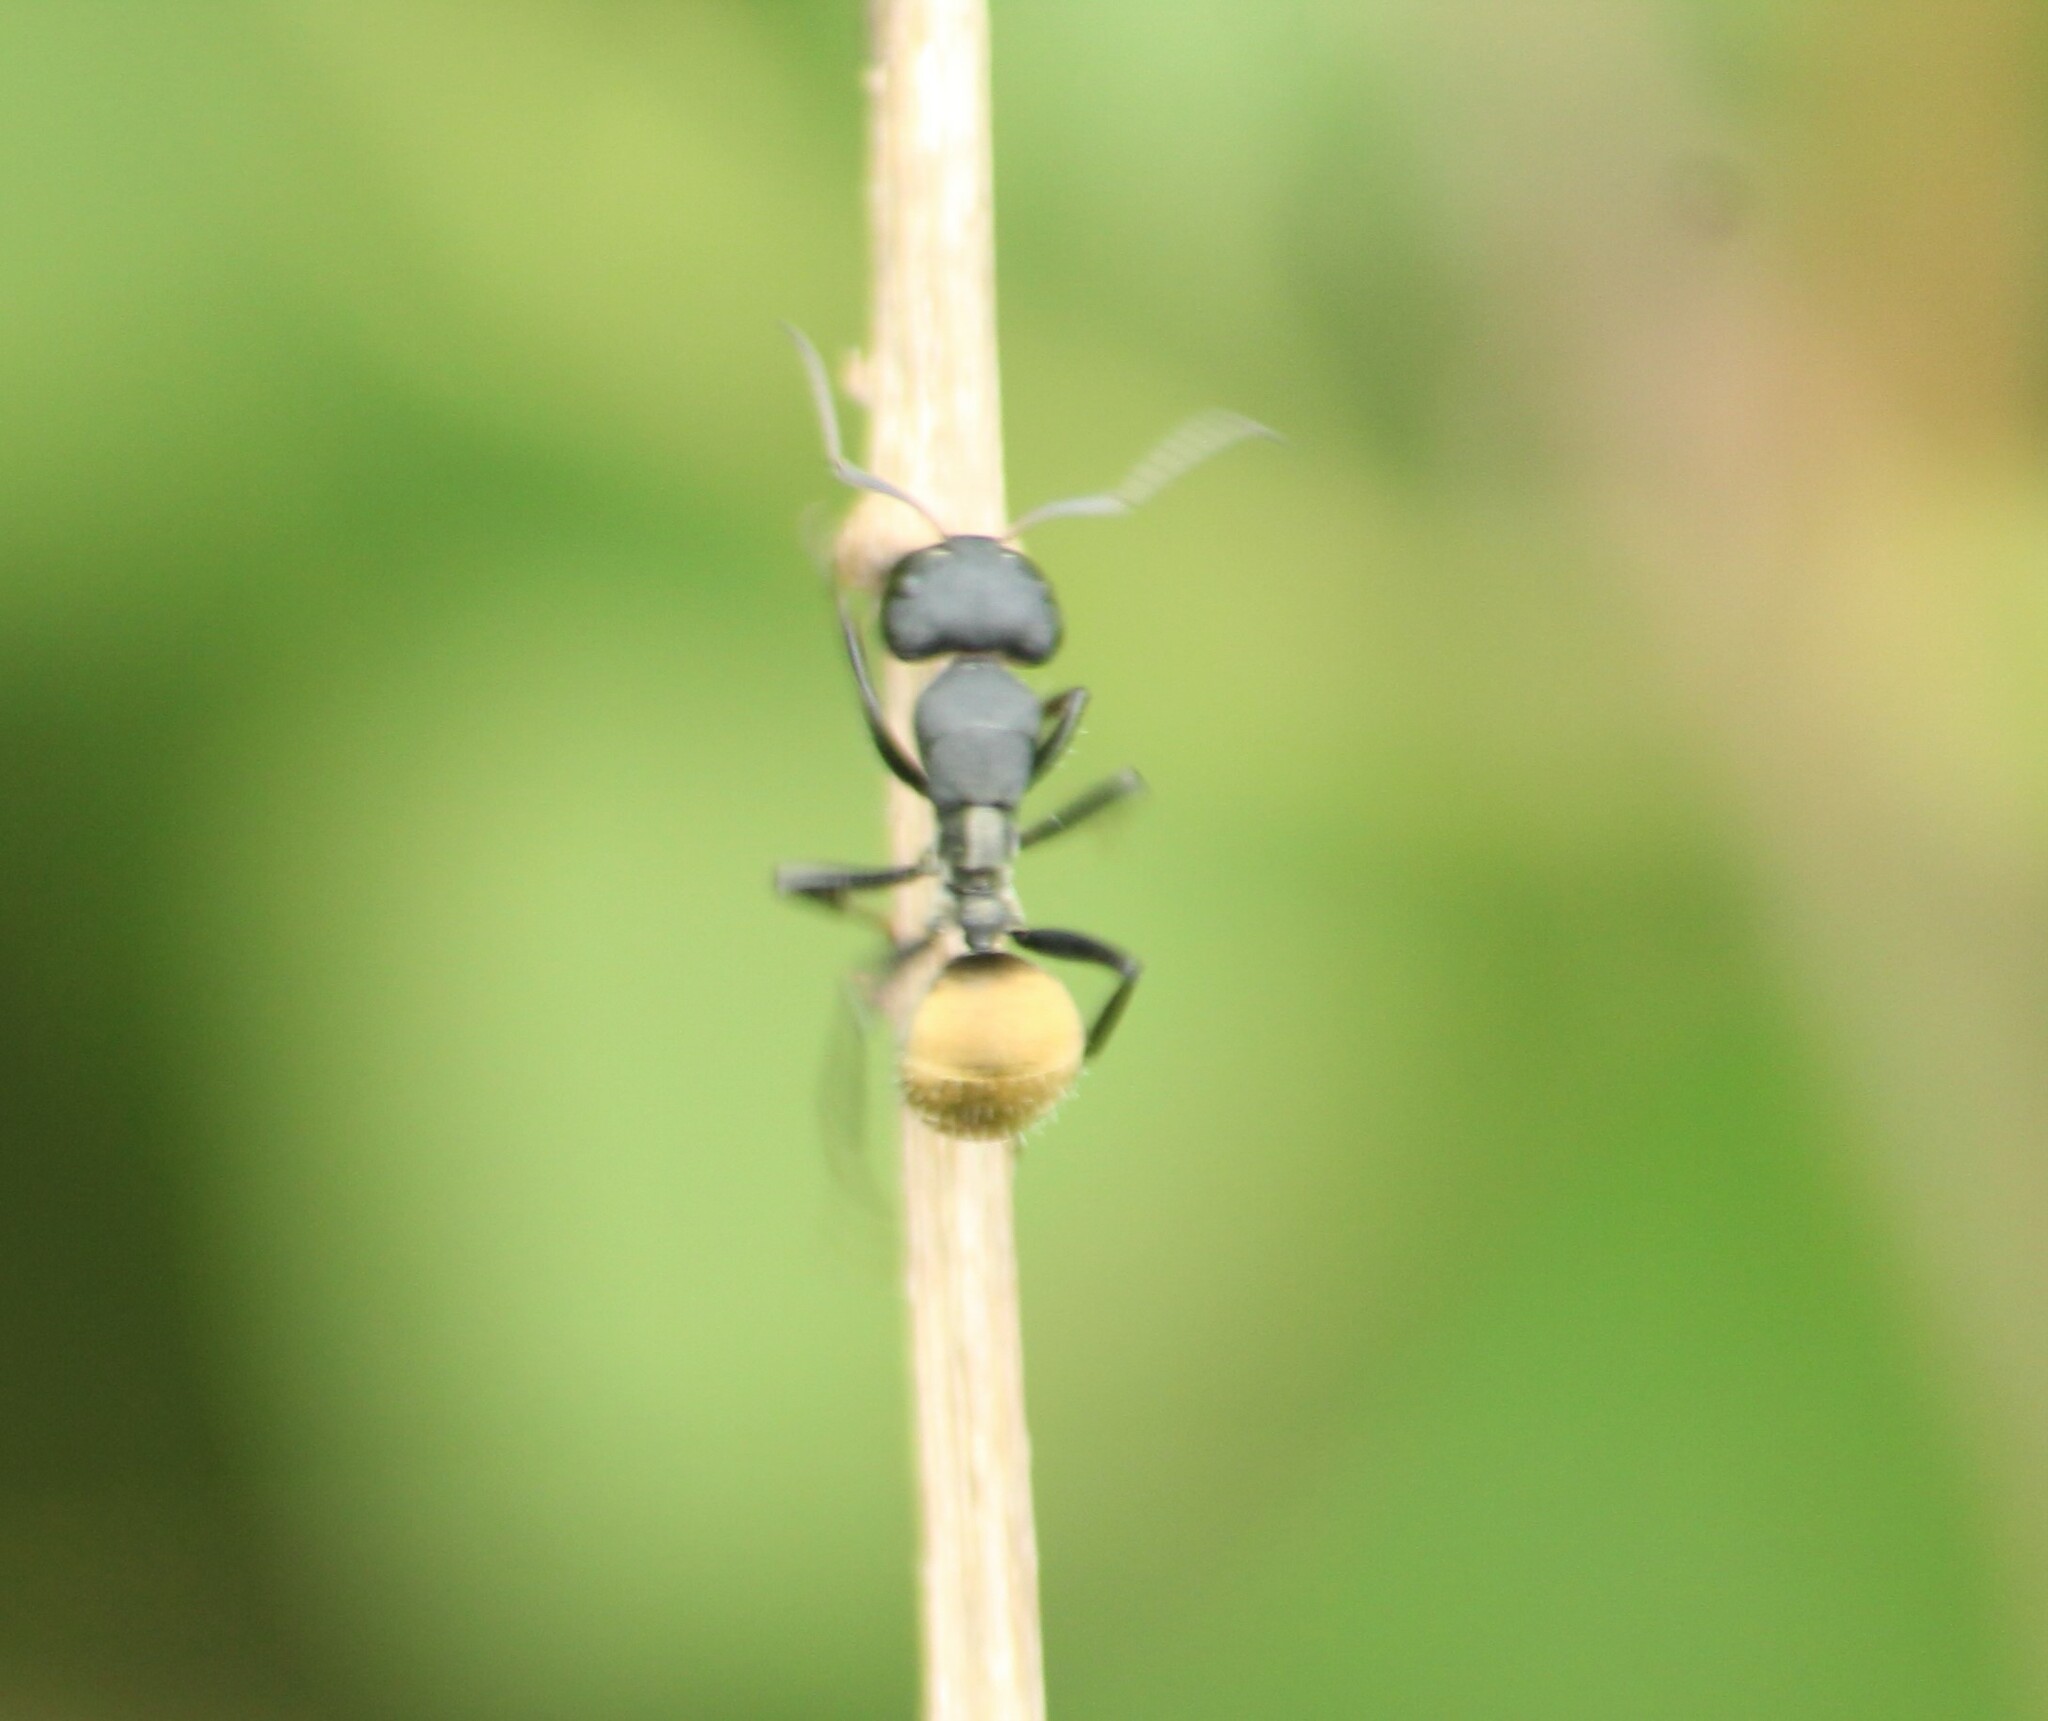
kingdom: Animalia
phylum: Arthropoda
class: Insecta
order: Hymenoptera
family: Formicidae
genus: Camponotus
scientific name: Camponotus sericeus
